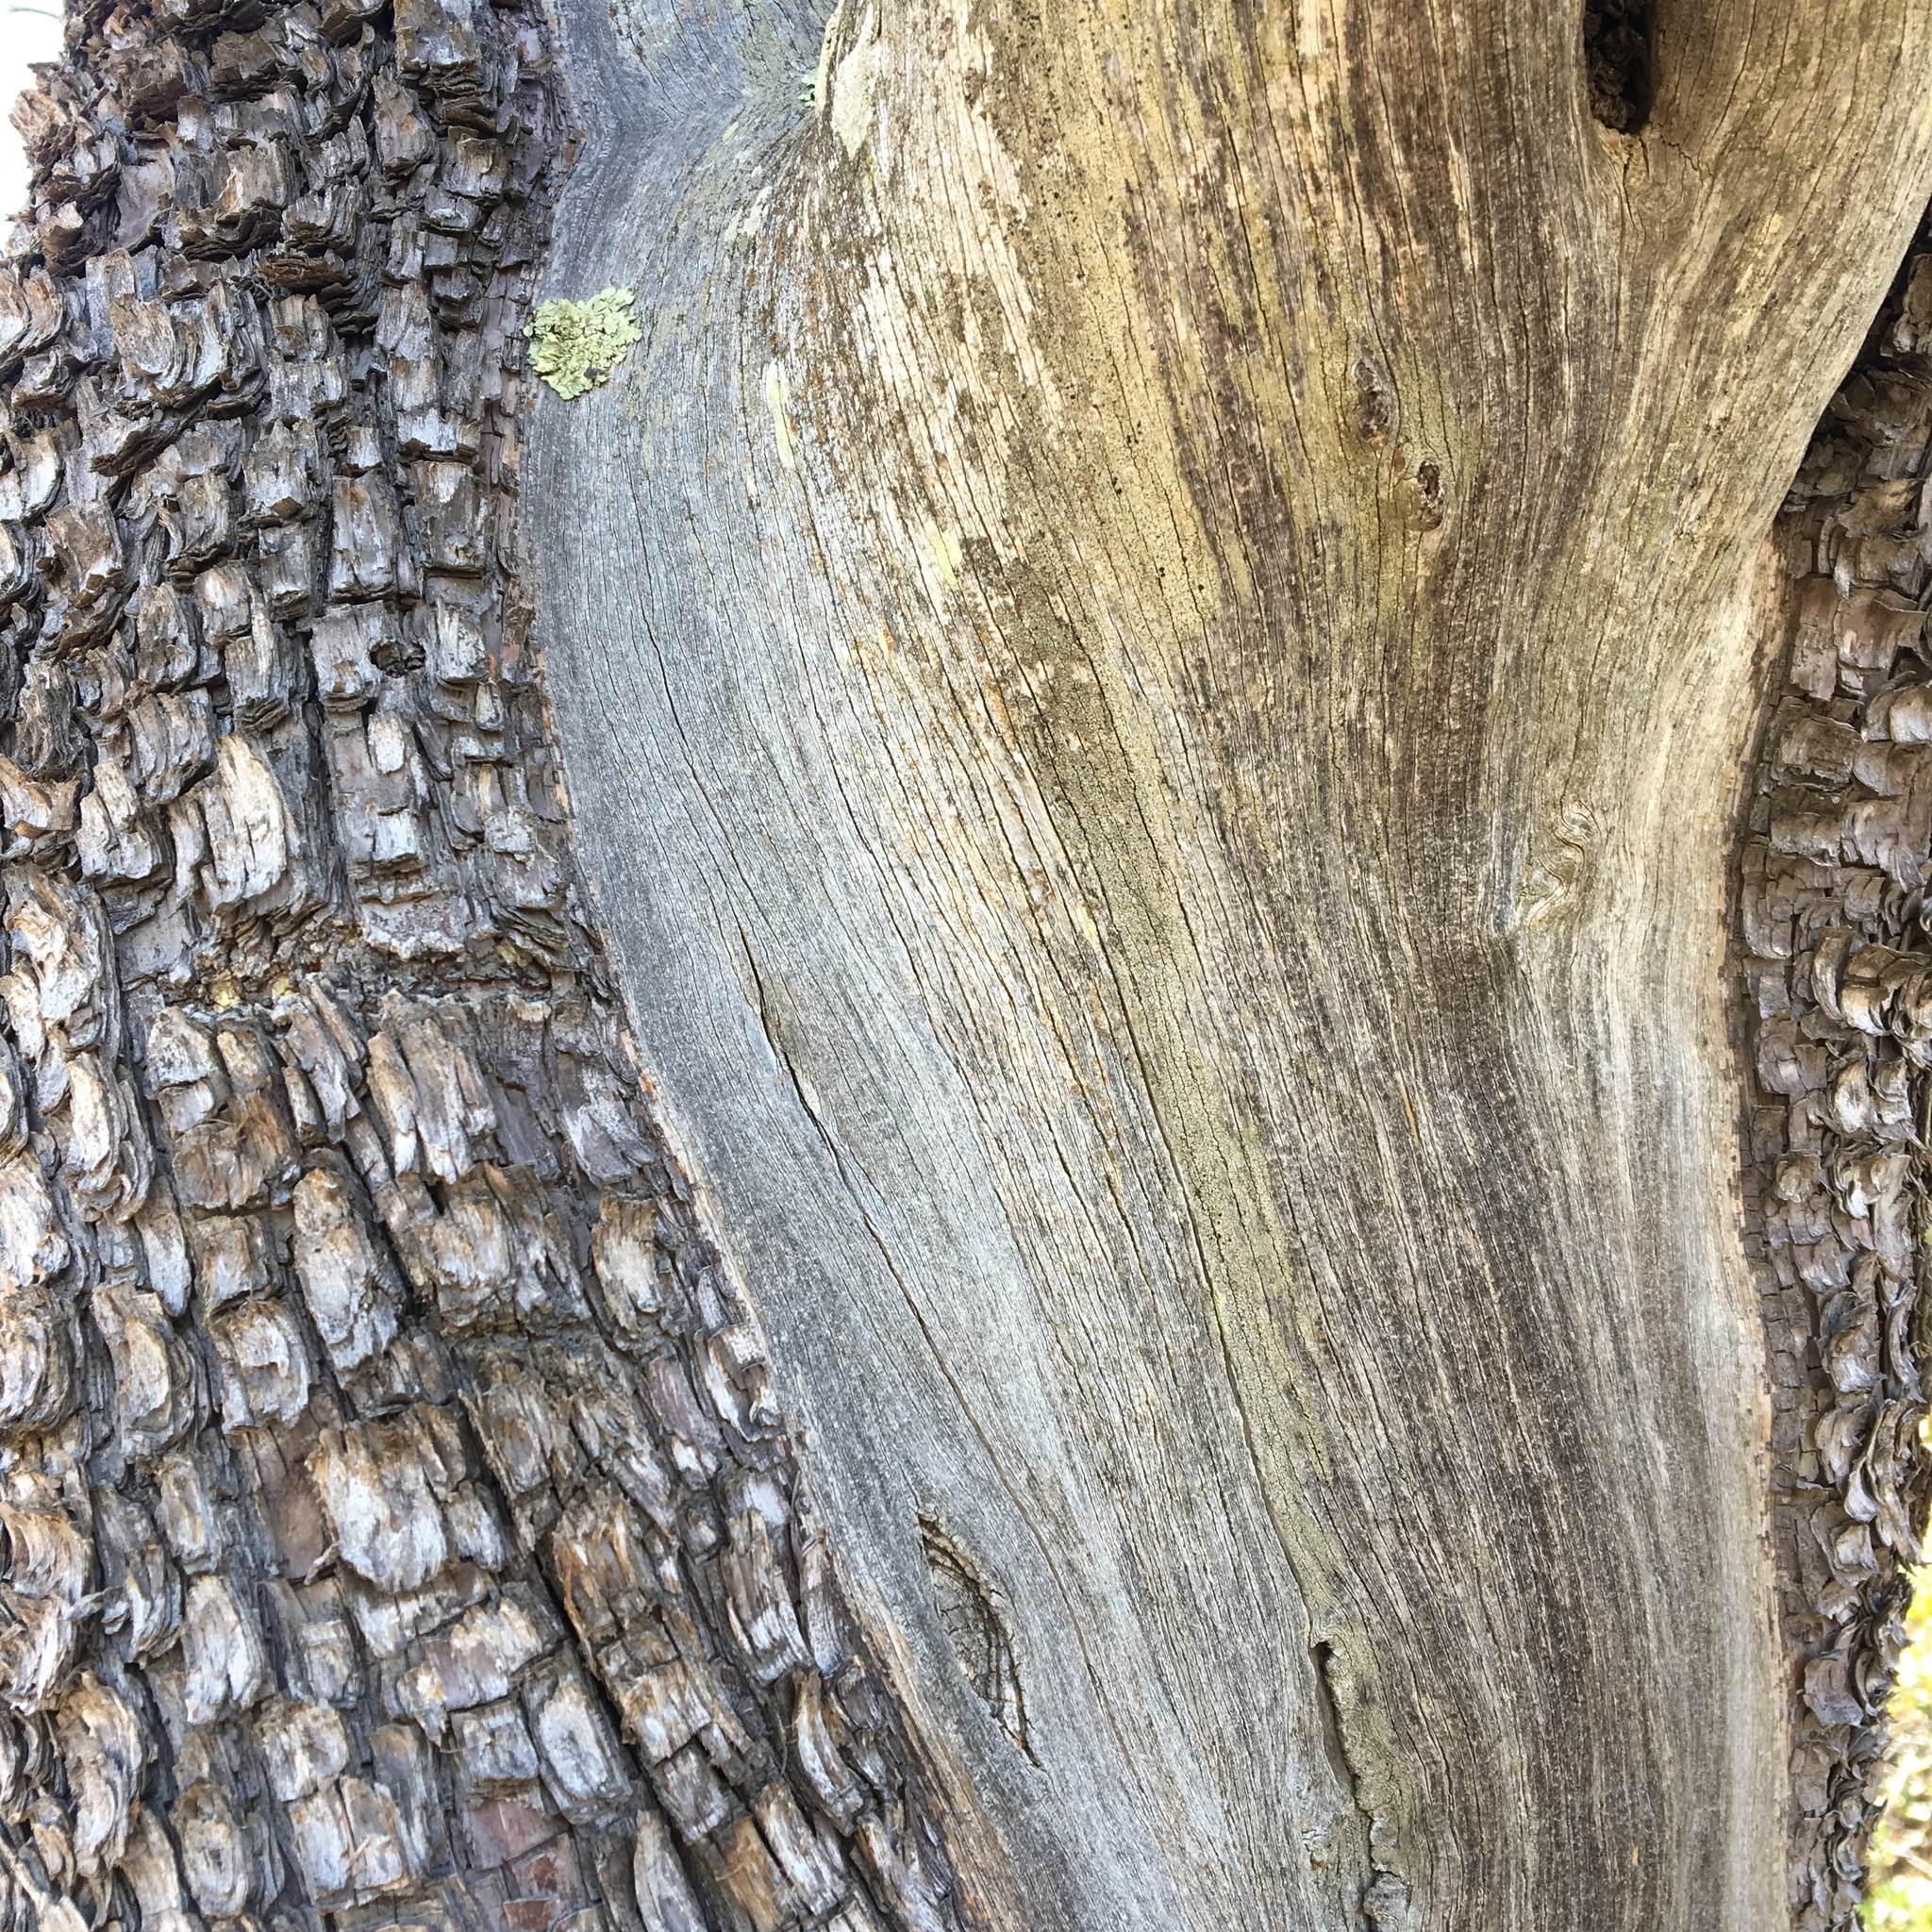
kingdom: Plantae
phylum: Tracheophyta
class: Pinopsida
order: Pinales
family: Cupressaceae
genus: Juniperus
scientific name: Juniperus deppeana
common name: Alligator juniper
